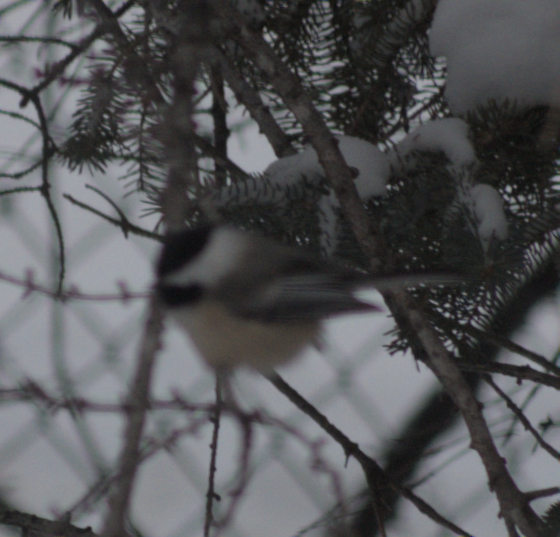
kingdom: Animalia
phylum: Chordata
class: Aves
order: Passeriformes
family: Paridae
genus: Poecile
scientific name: Poecile atricapillus
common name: Black-capped chickadee
